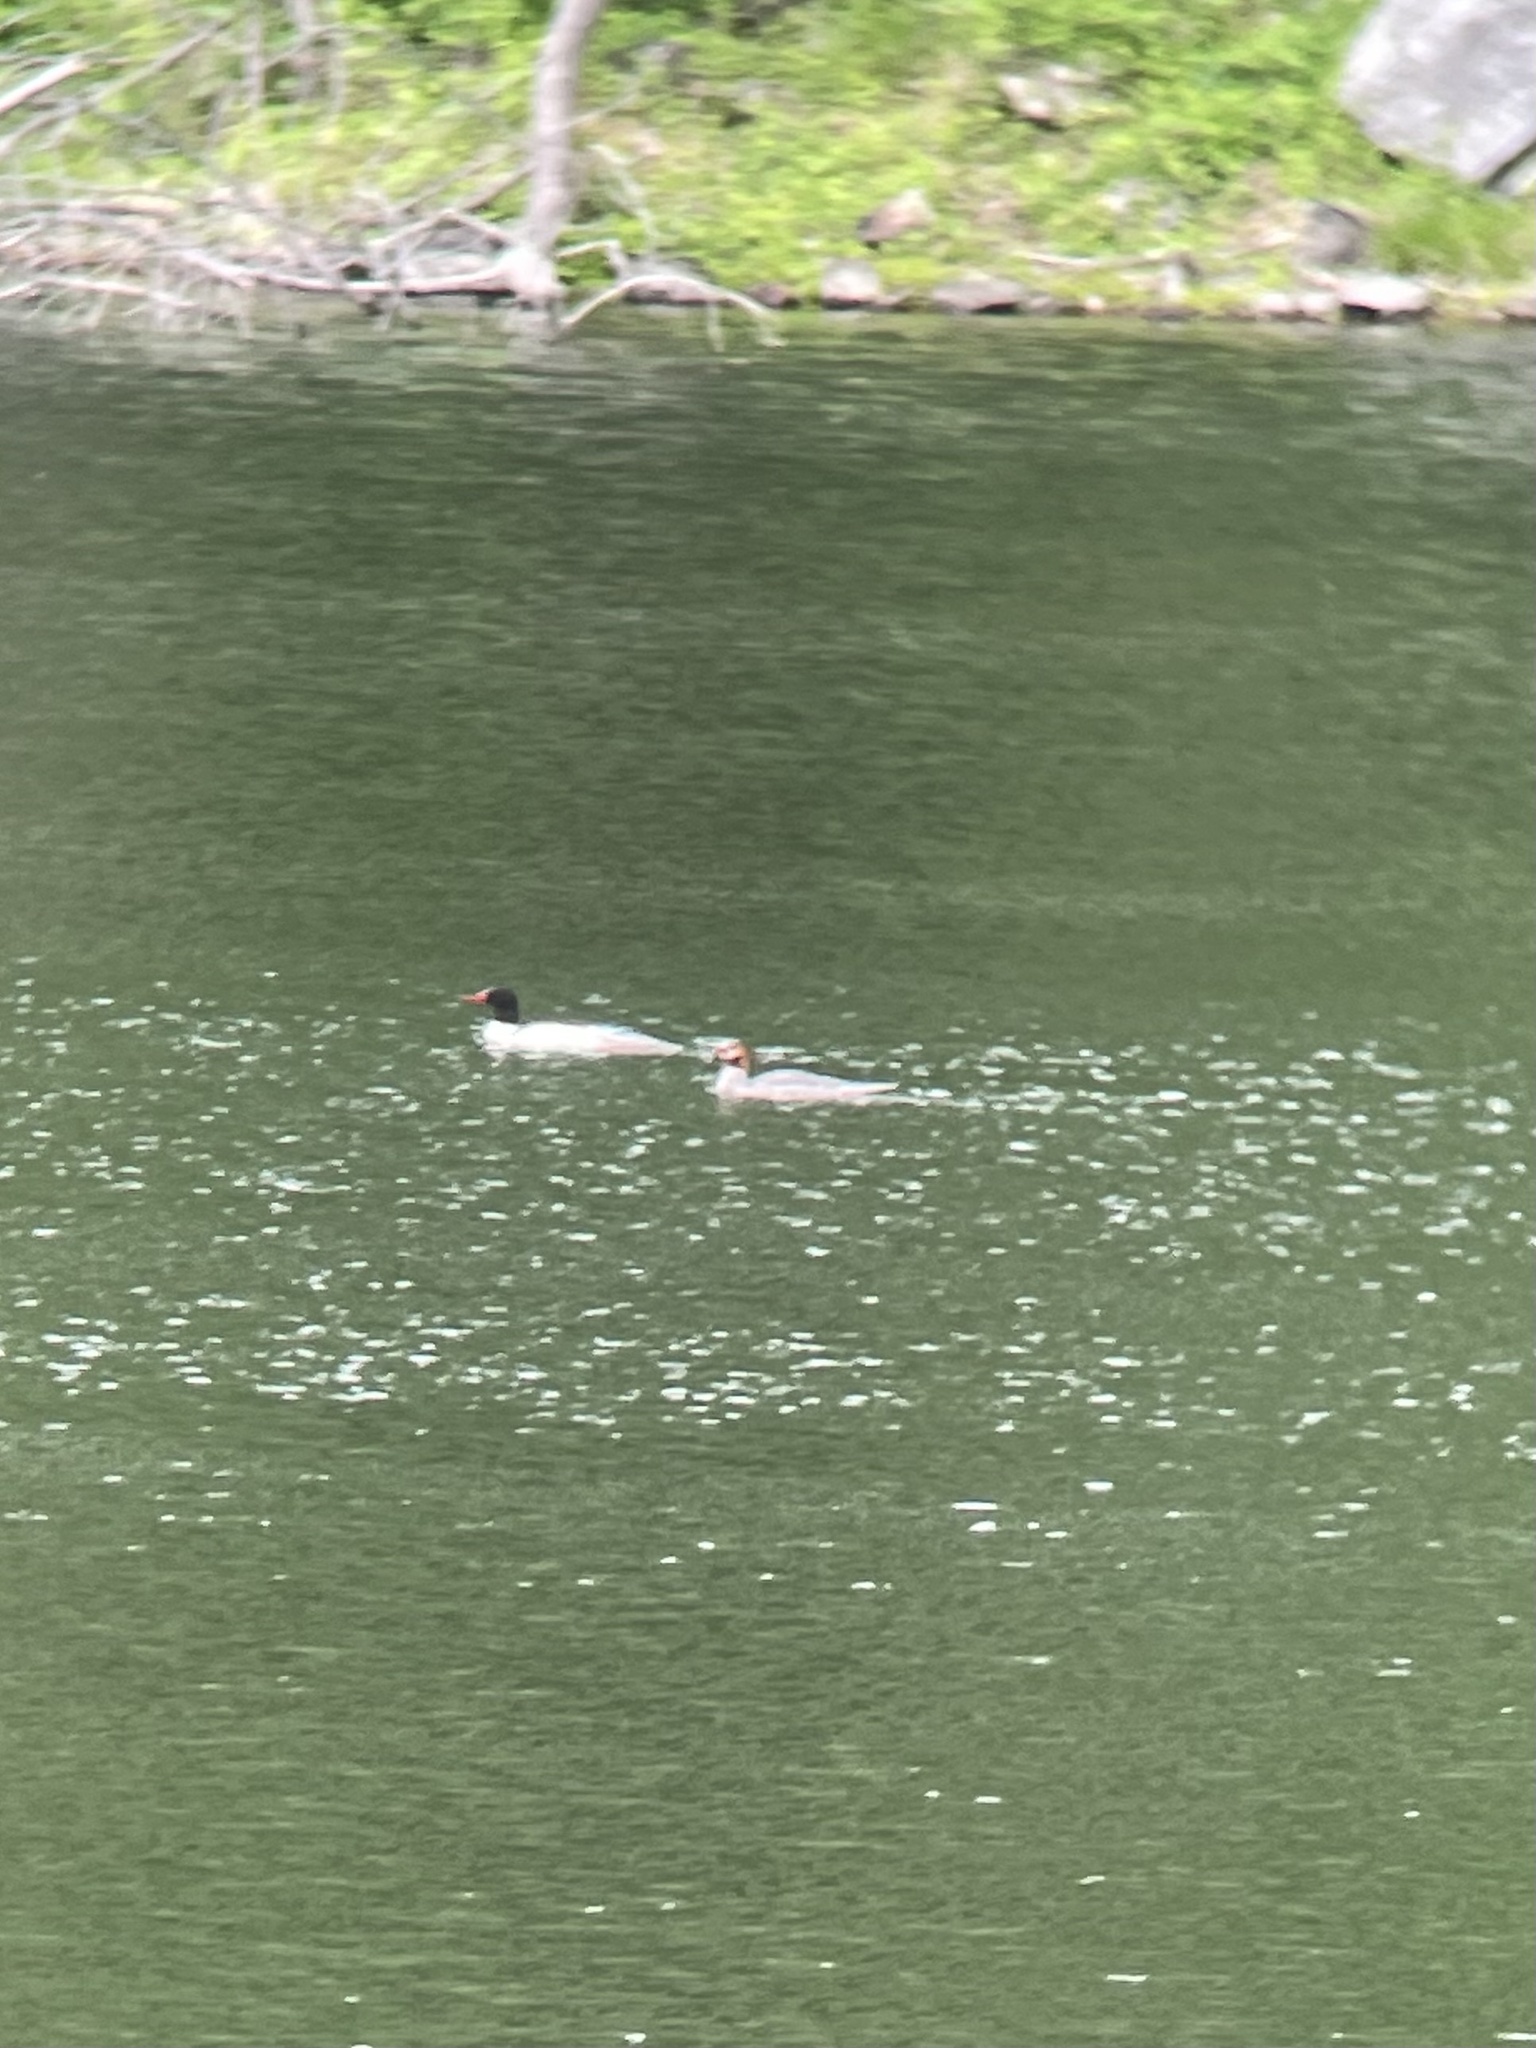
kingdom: Animalia
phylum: Chordata
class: Aves
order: Anseriformes
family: Anatidae
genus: Mergus
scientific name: Mergus merganser
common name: Common merganser
